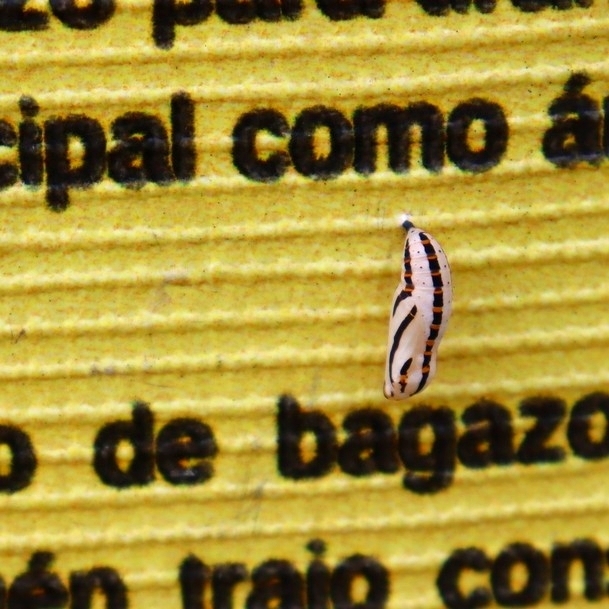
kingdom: Animalia
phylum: Arthropoda
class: Insecta
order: Lepidoptera
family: Nymphalidae
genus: Thessalia
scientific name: Thessalia theona
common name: Nymphalid moth
